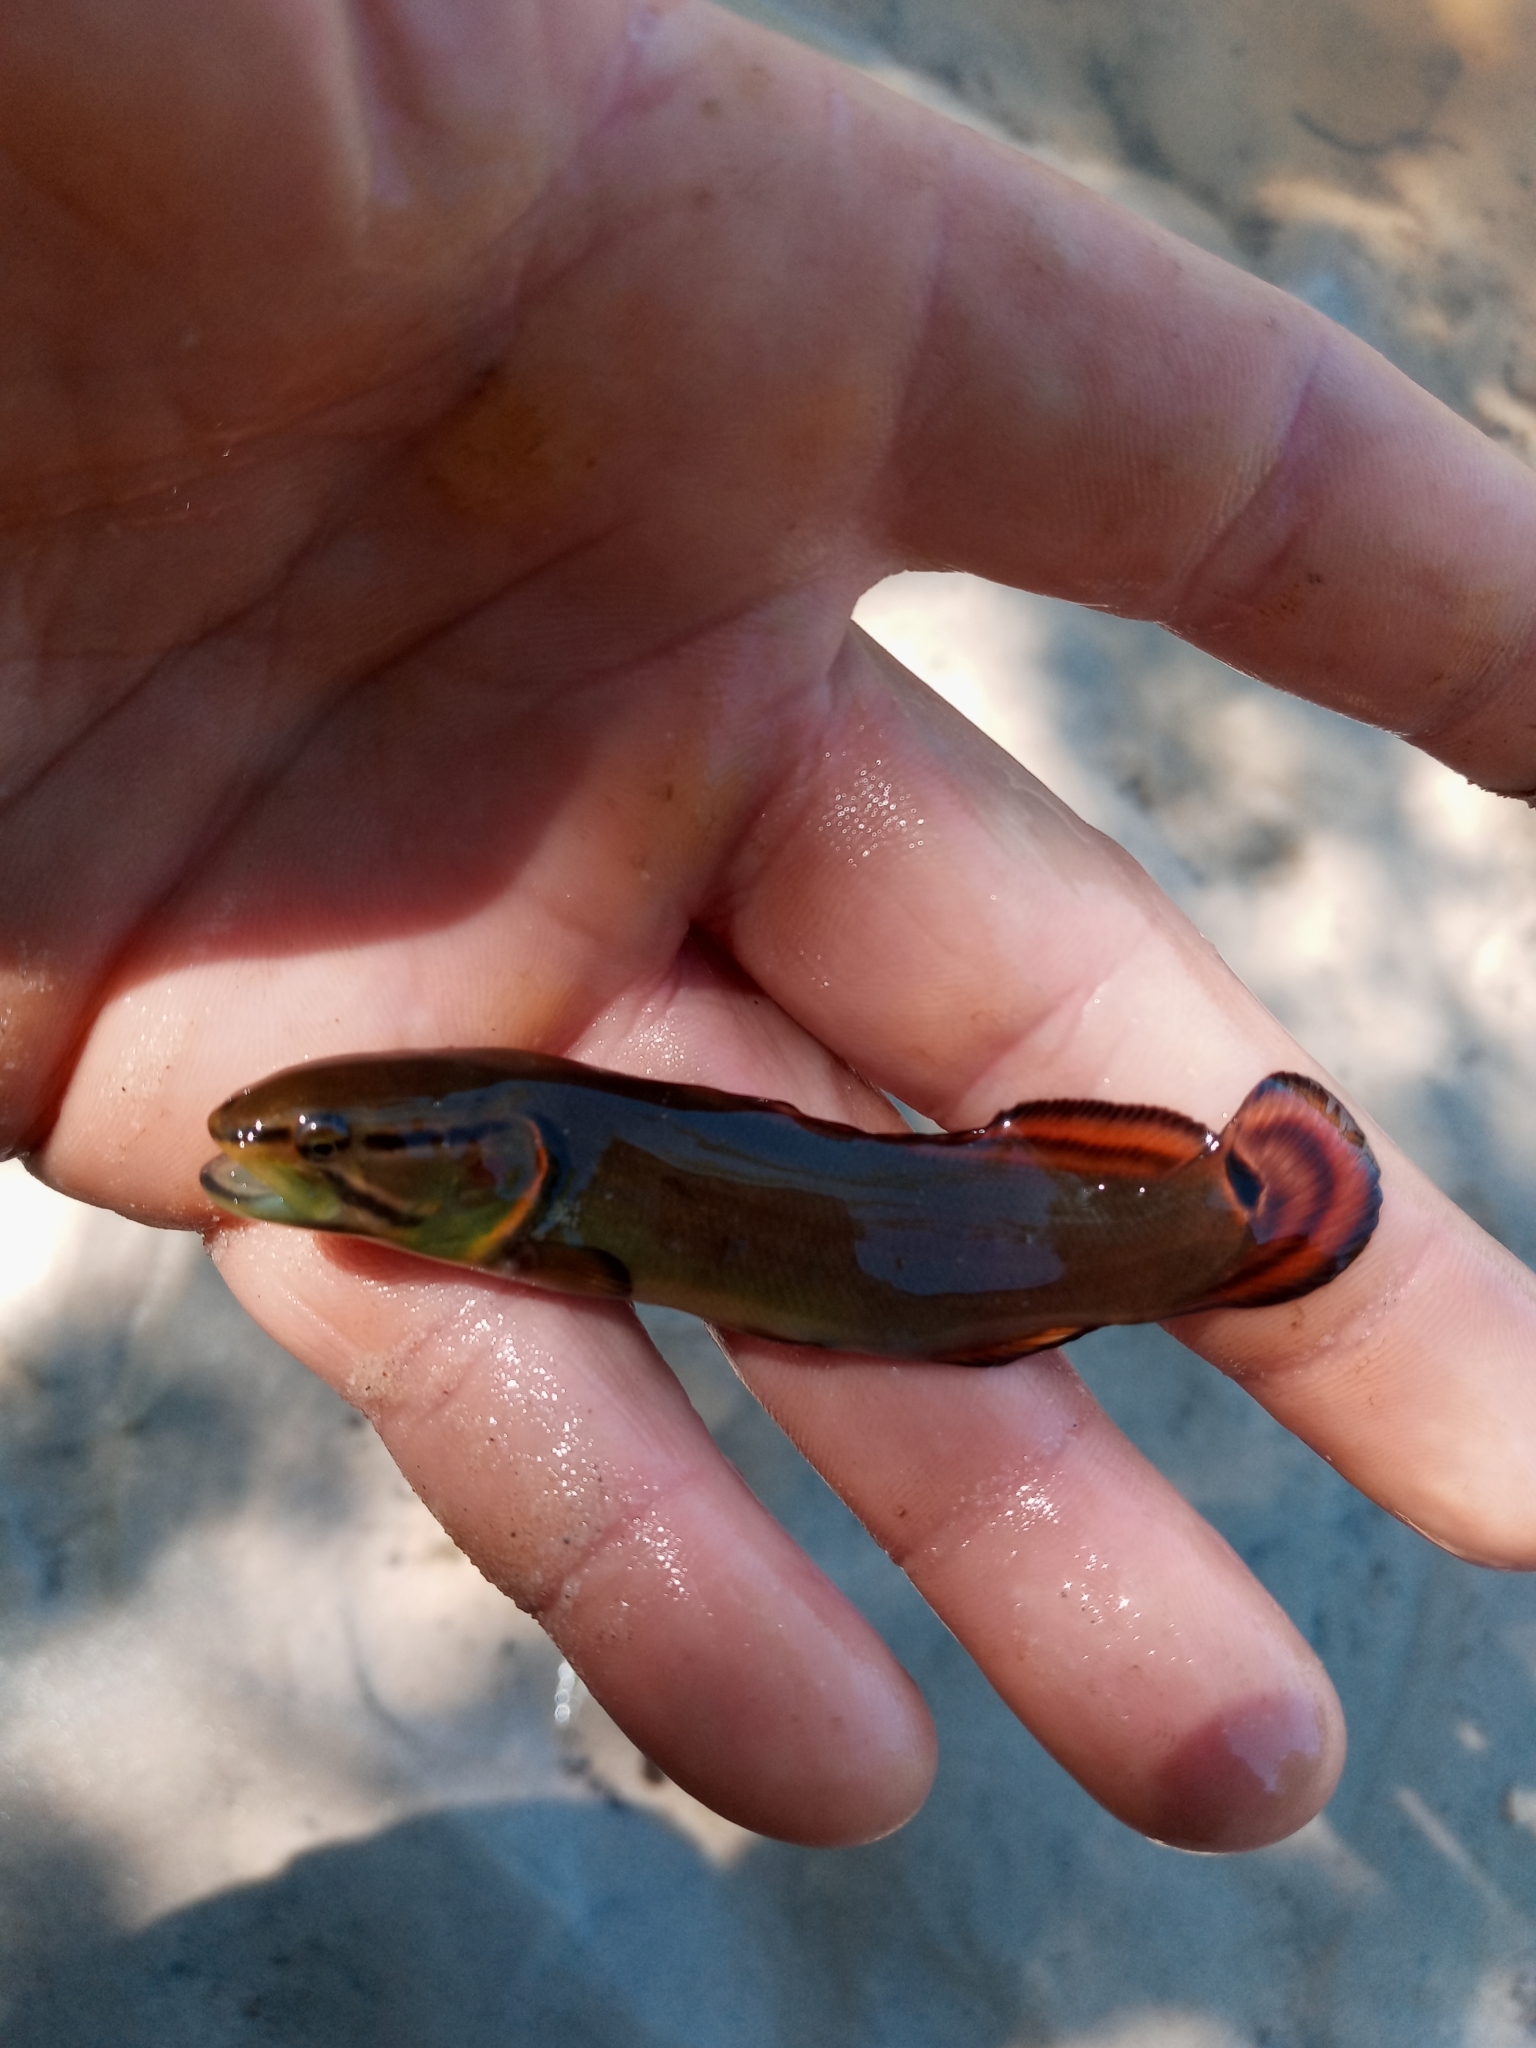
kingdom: Animalia
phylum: Chordata
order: Amiiformes
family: Amiidae
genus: Amia
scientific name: Amia calva
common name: Bowfin
